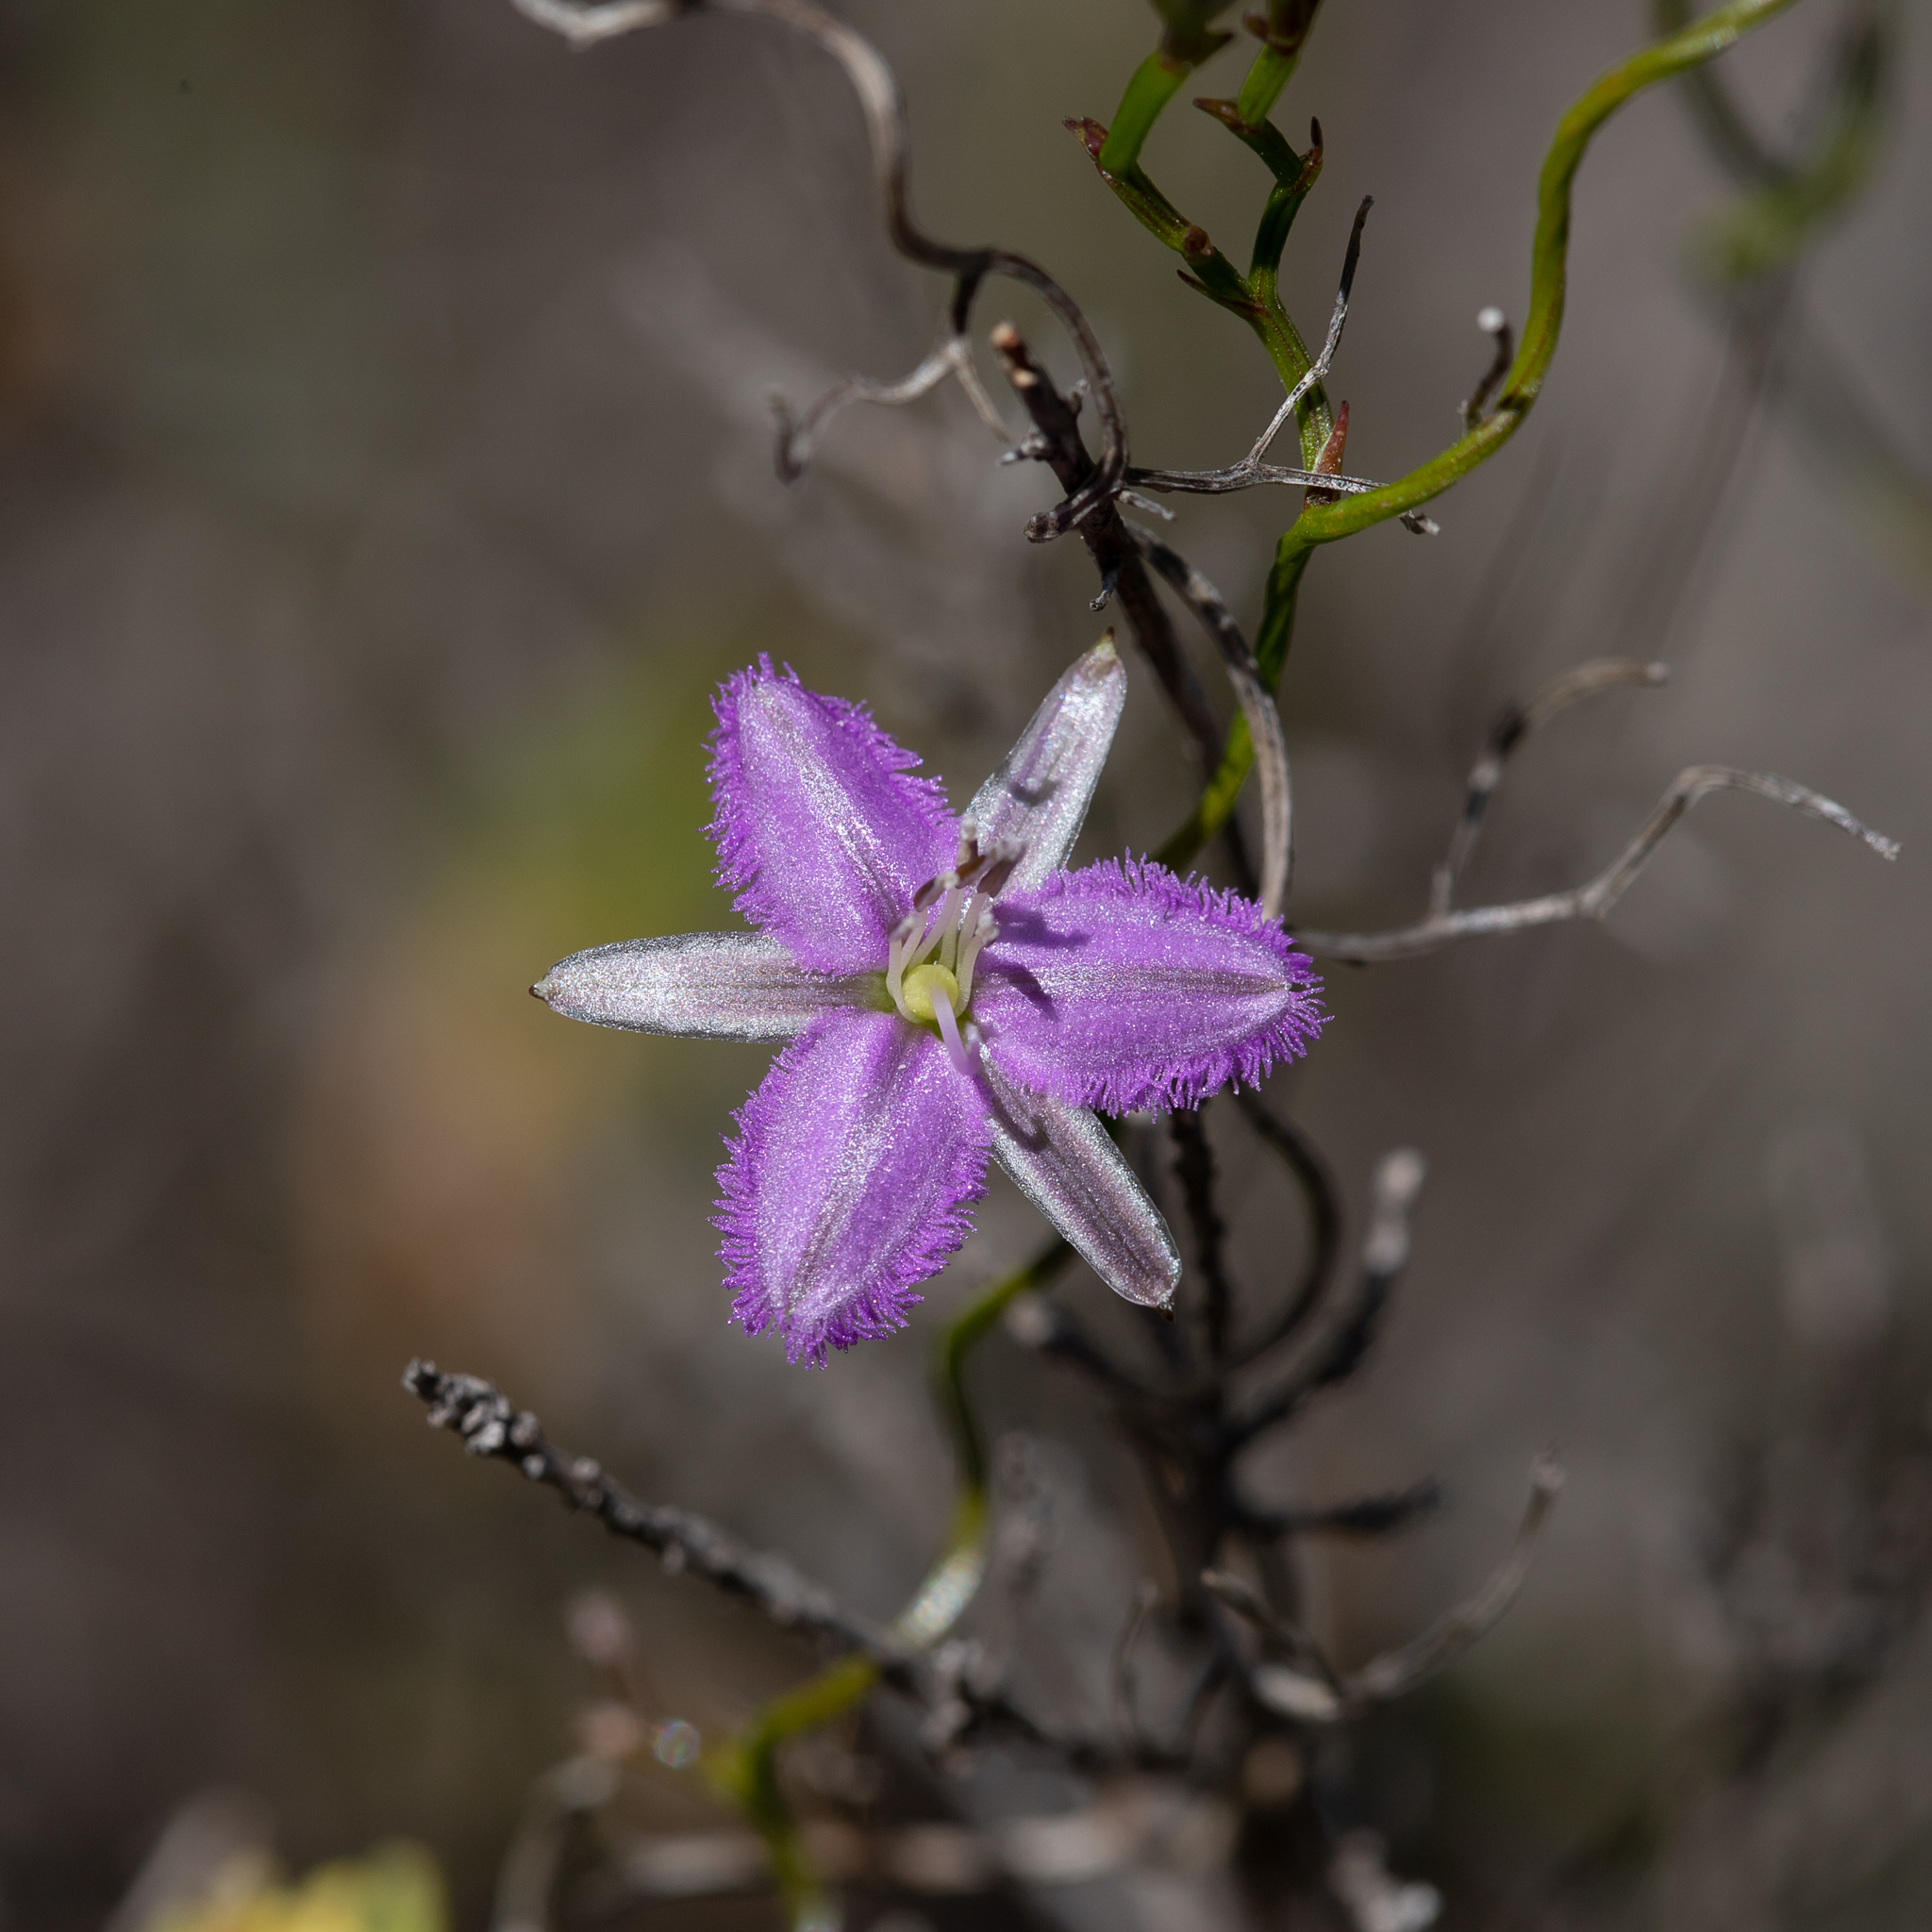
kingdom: Plantae
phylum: Tracheophyta
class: Liliopsida
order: Asparagales
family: Asparagaceae
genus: Thysanotus
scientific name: Thysanotus patersonii
